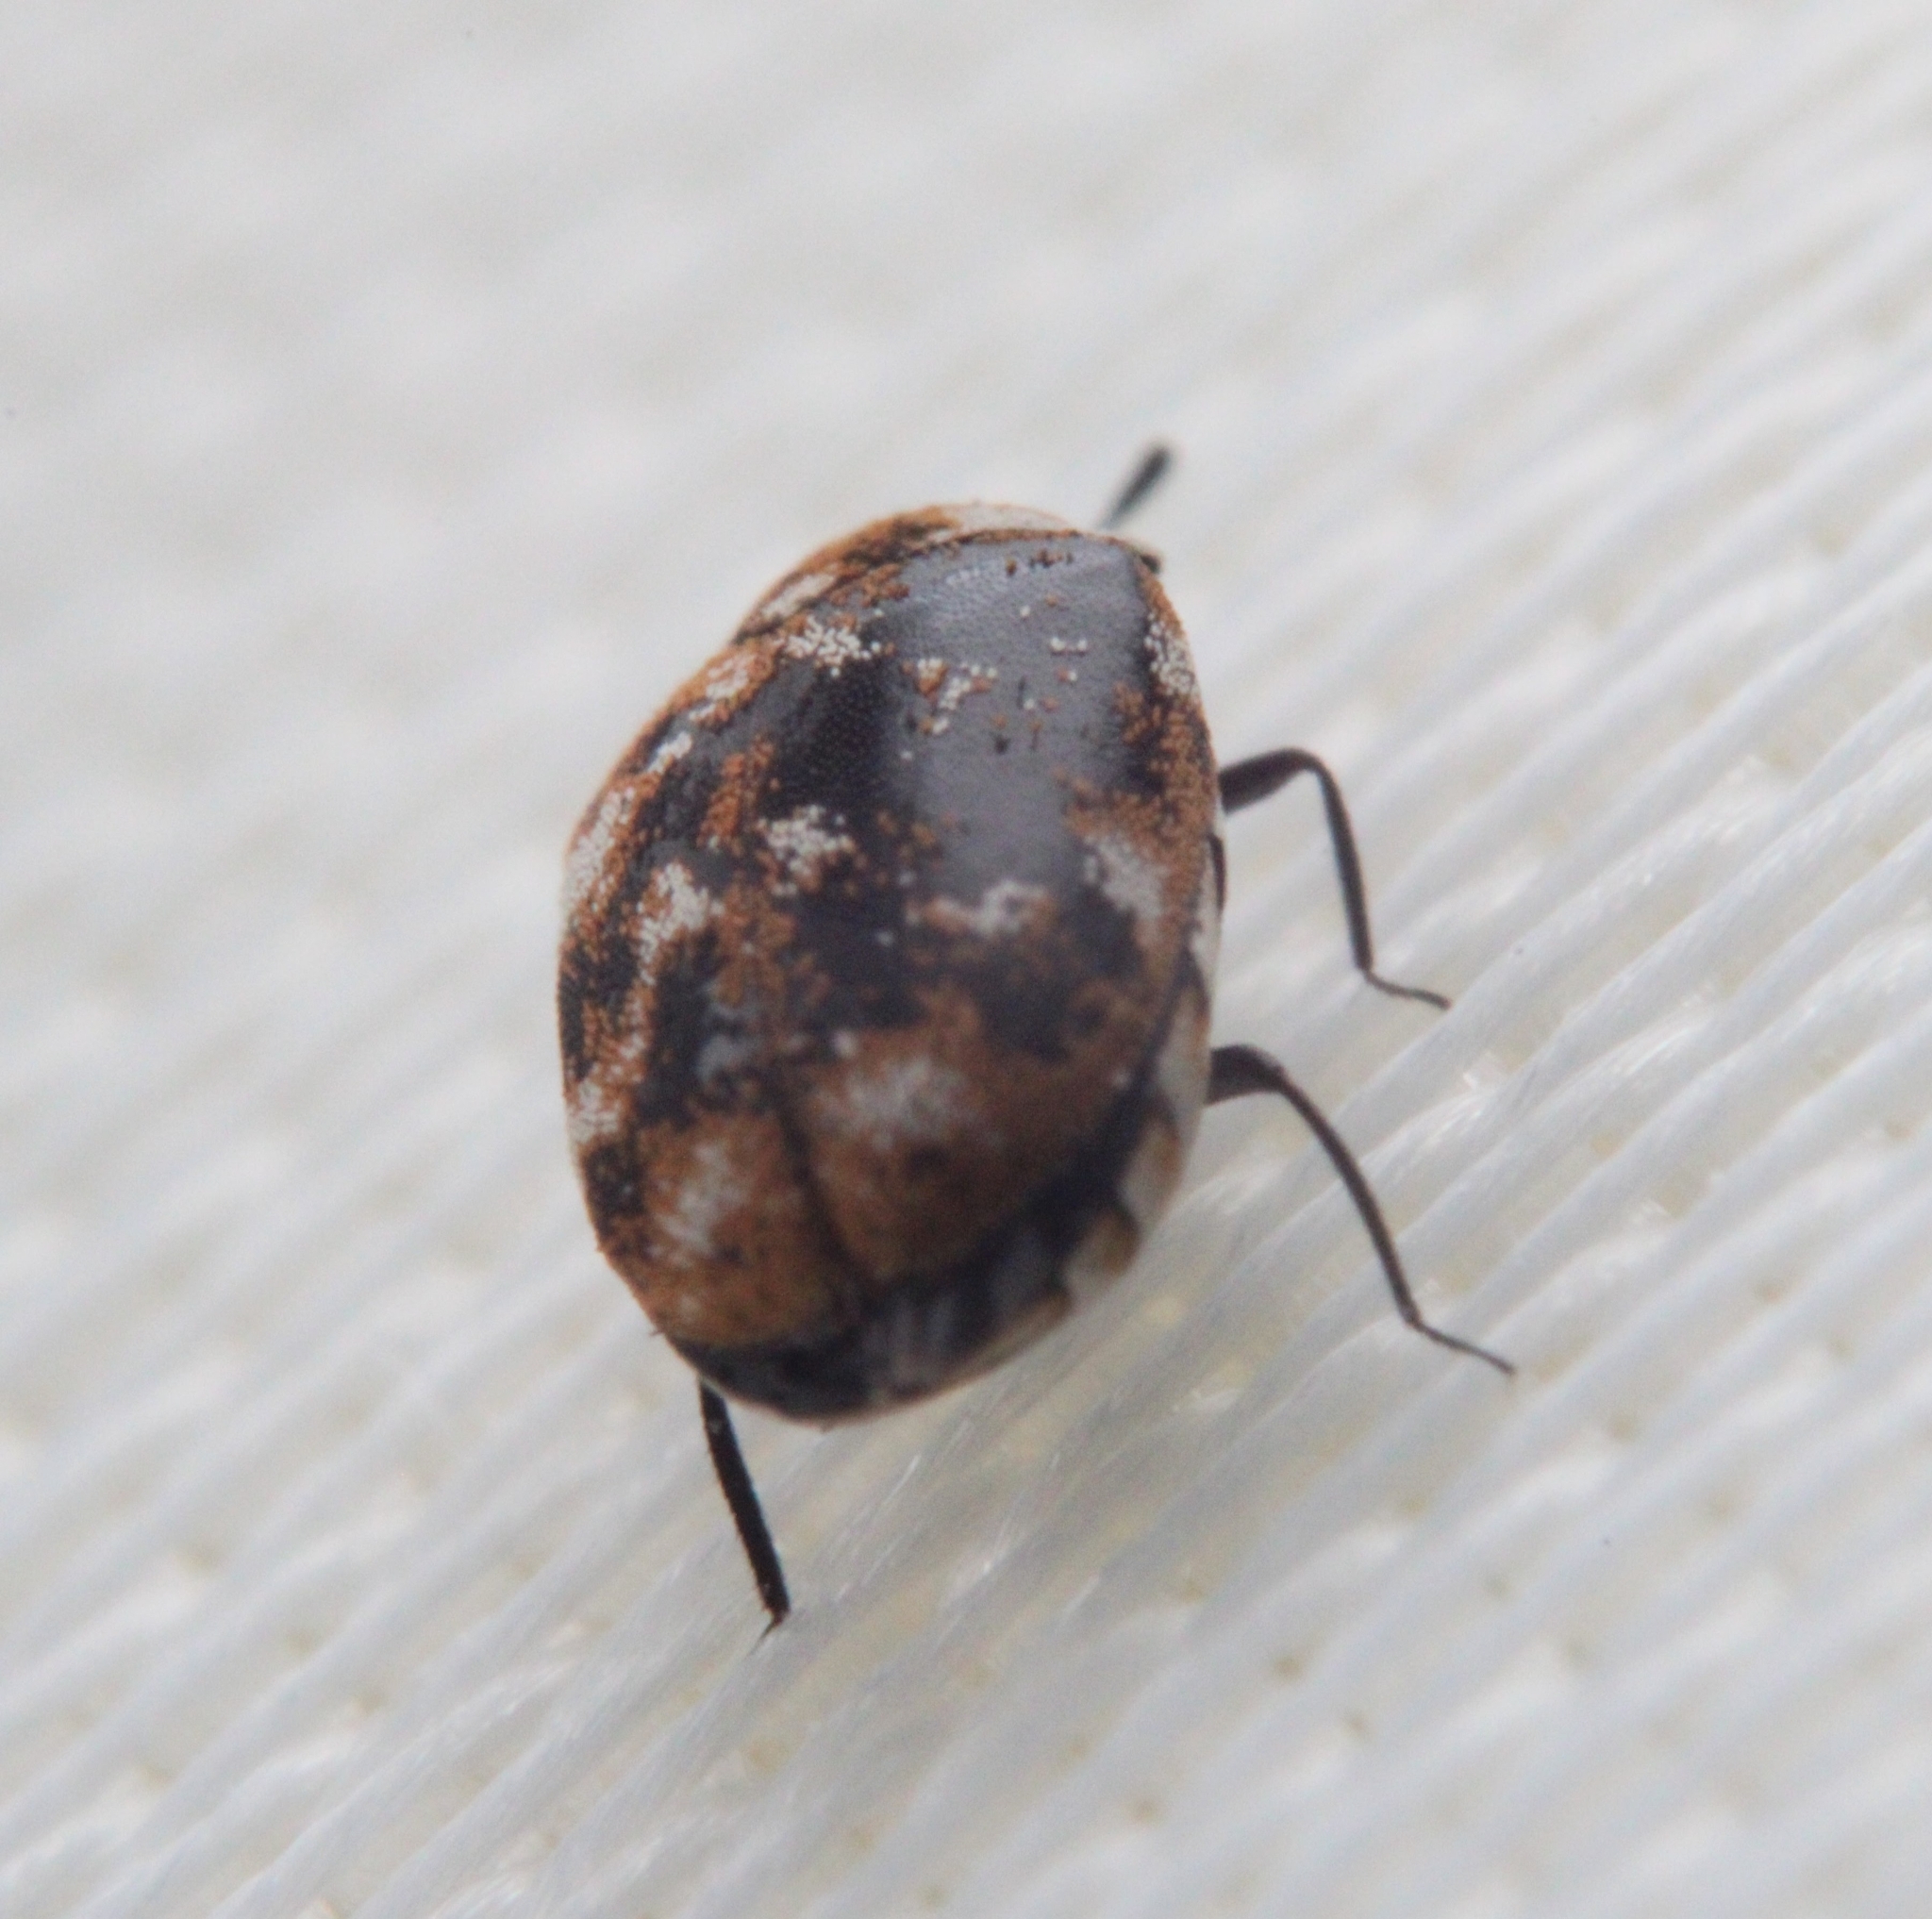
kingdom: Animalia
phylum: Arthropoda
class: Insecta
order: Coleoptera
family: Dermestidae
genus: Anthrenus
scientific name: Anthrenus verbasci
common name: Varied carpet beetle
